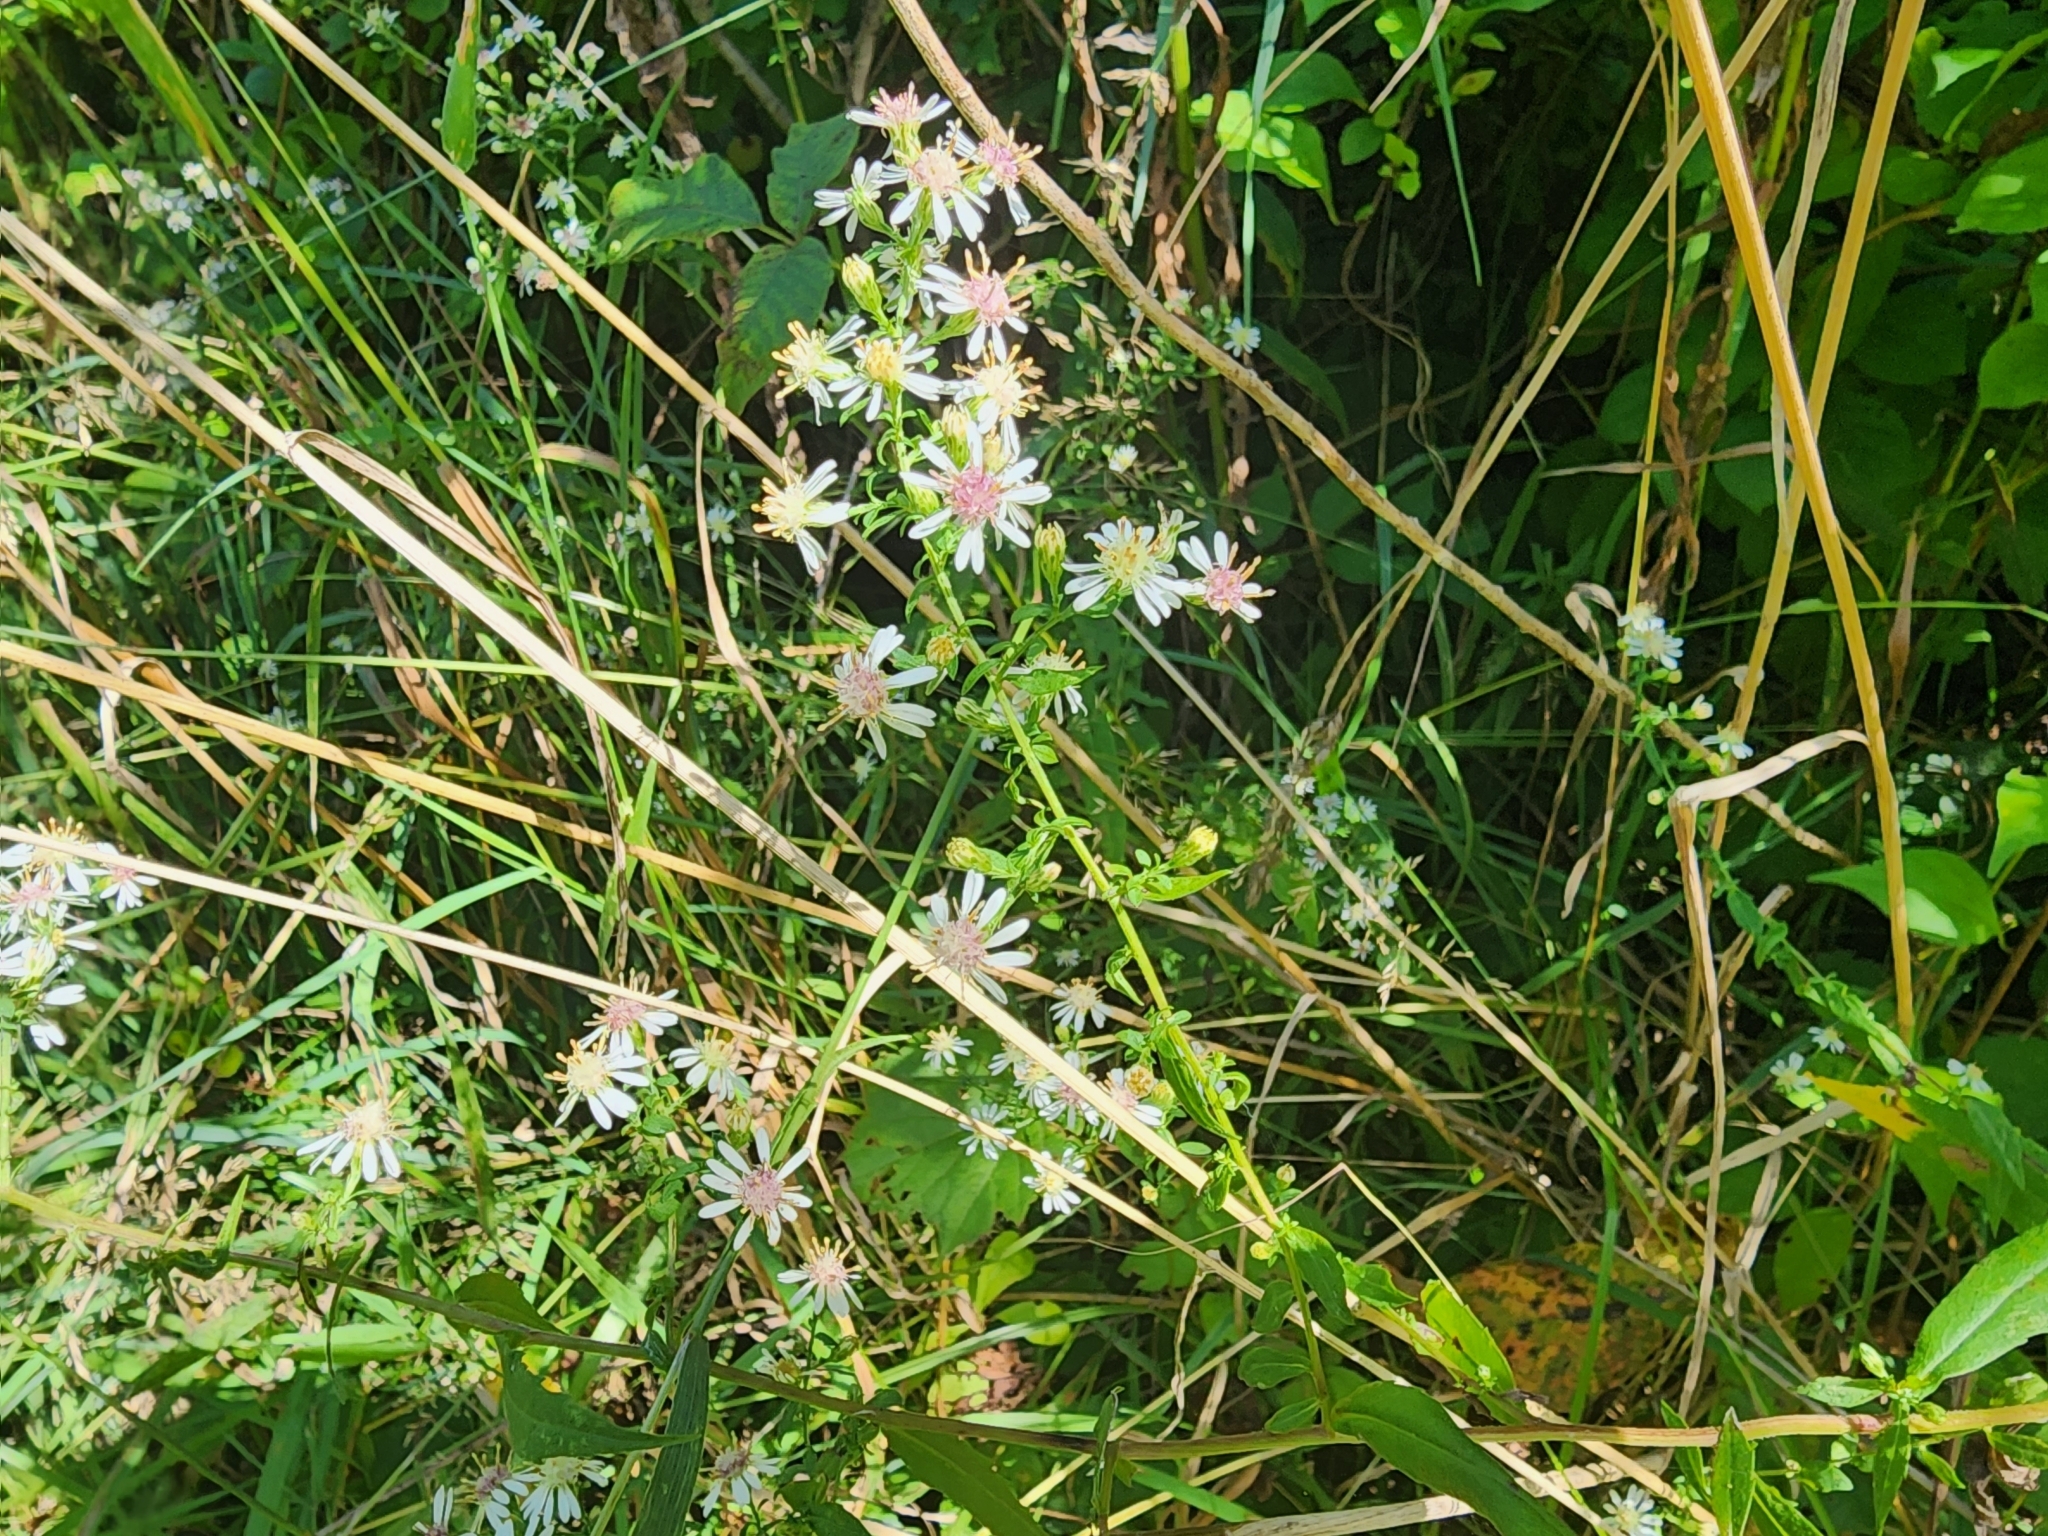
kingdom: Plantae
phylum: Tracheophyta
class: Magnoliopsida
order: Asterales
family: Asteraceae
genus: Symphyotrichum
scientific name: Symphyotrichum lateriflorum
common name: Calico aster
